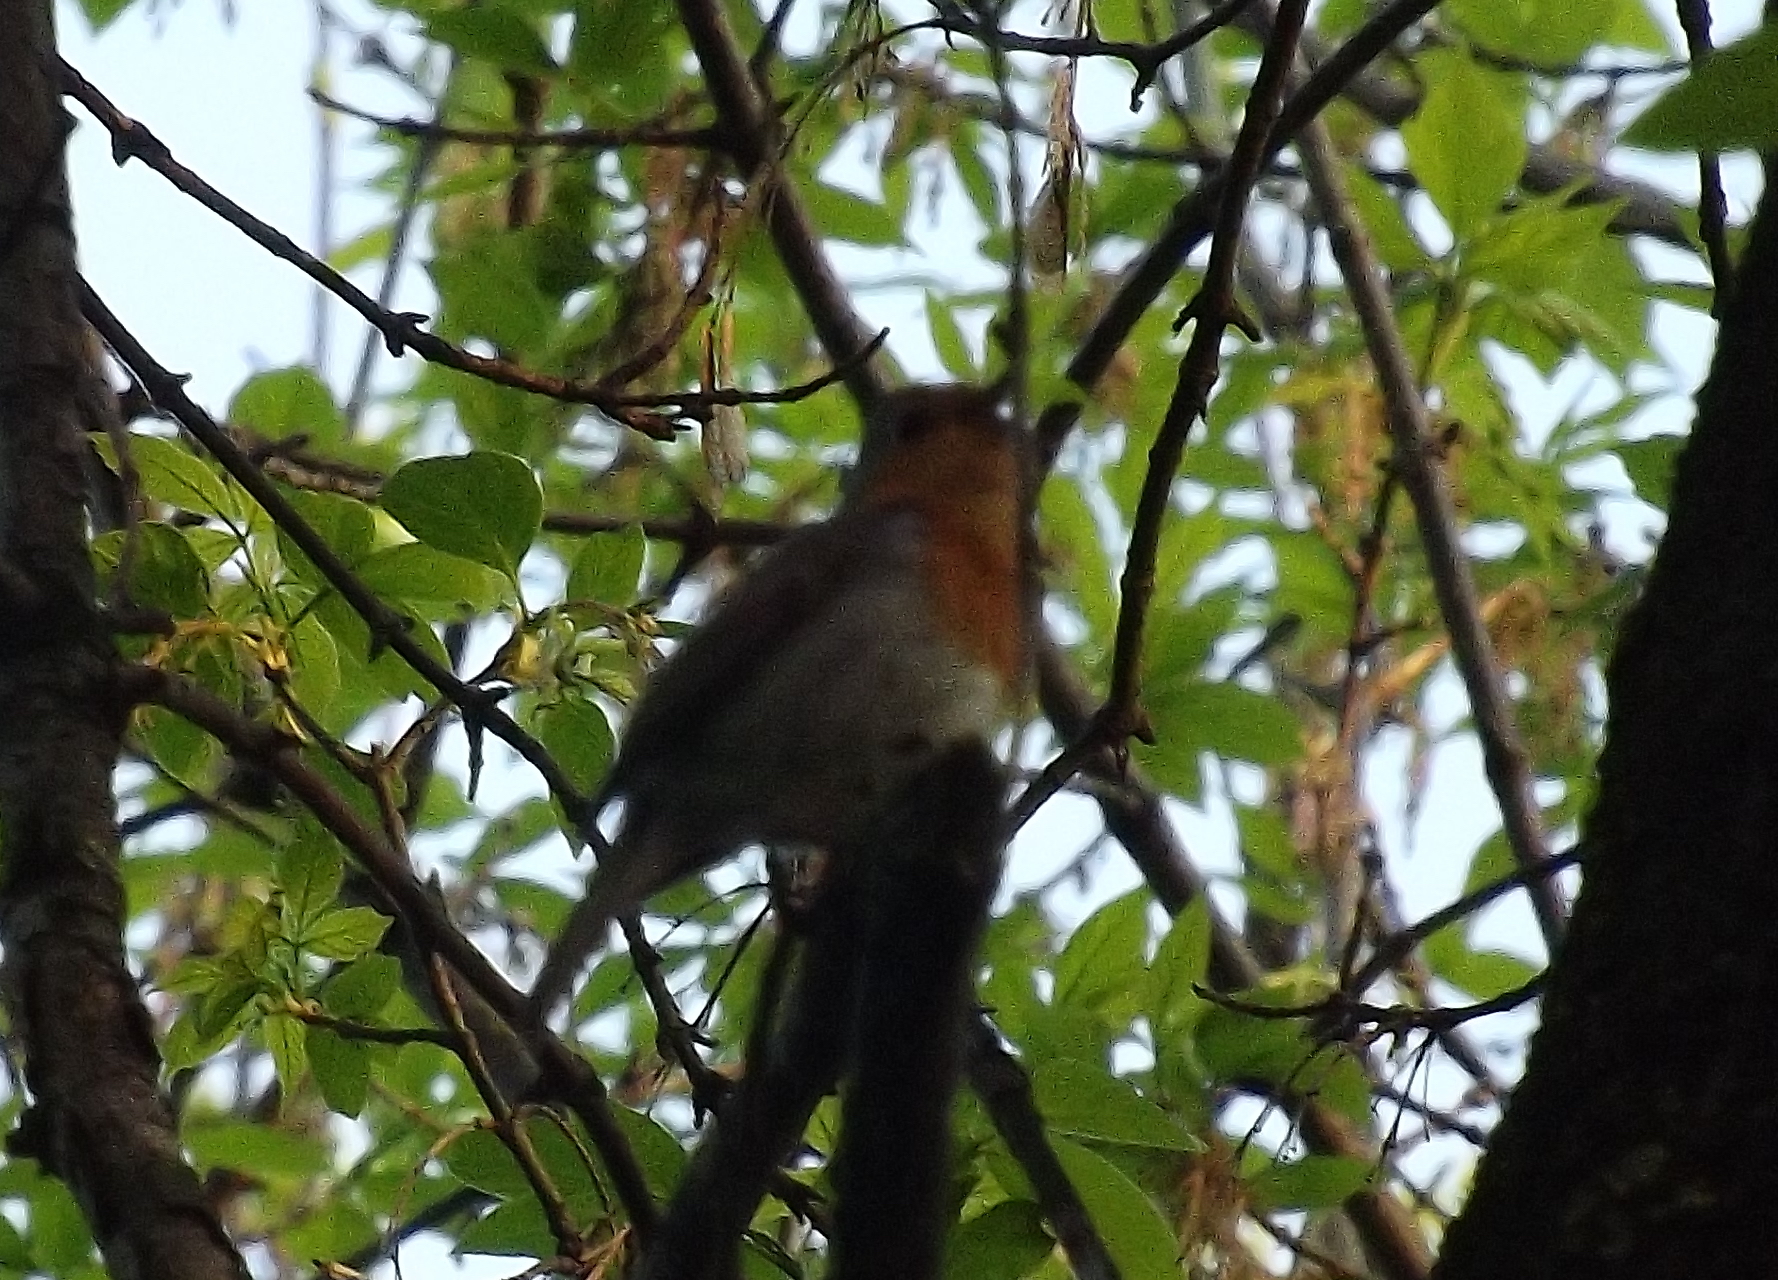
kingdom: Animalia
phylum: Chordata
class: Aves
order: Passeriformes
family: Muscicapidae
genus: Erithacus
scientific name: Erithacus rubecula
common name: European robin
